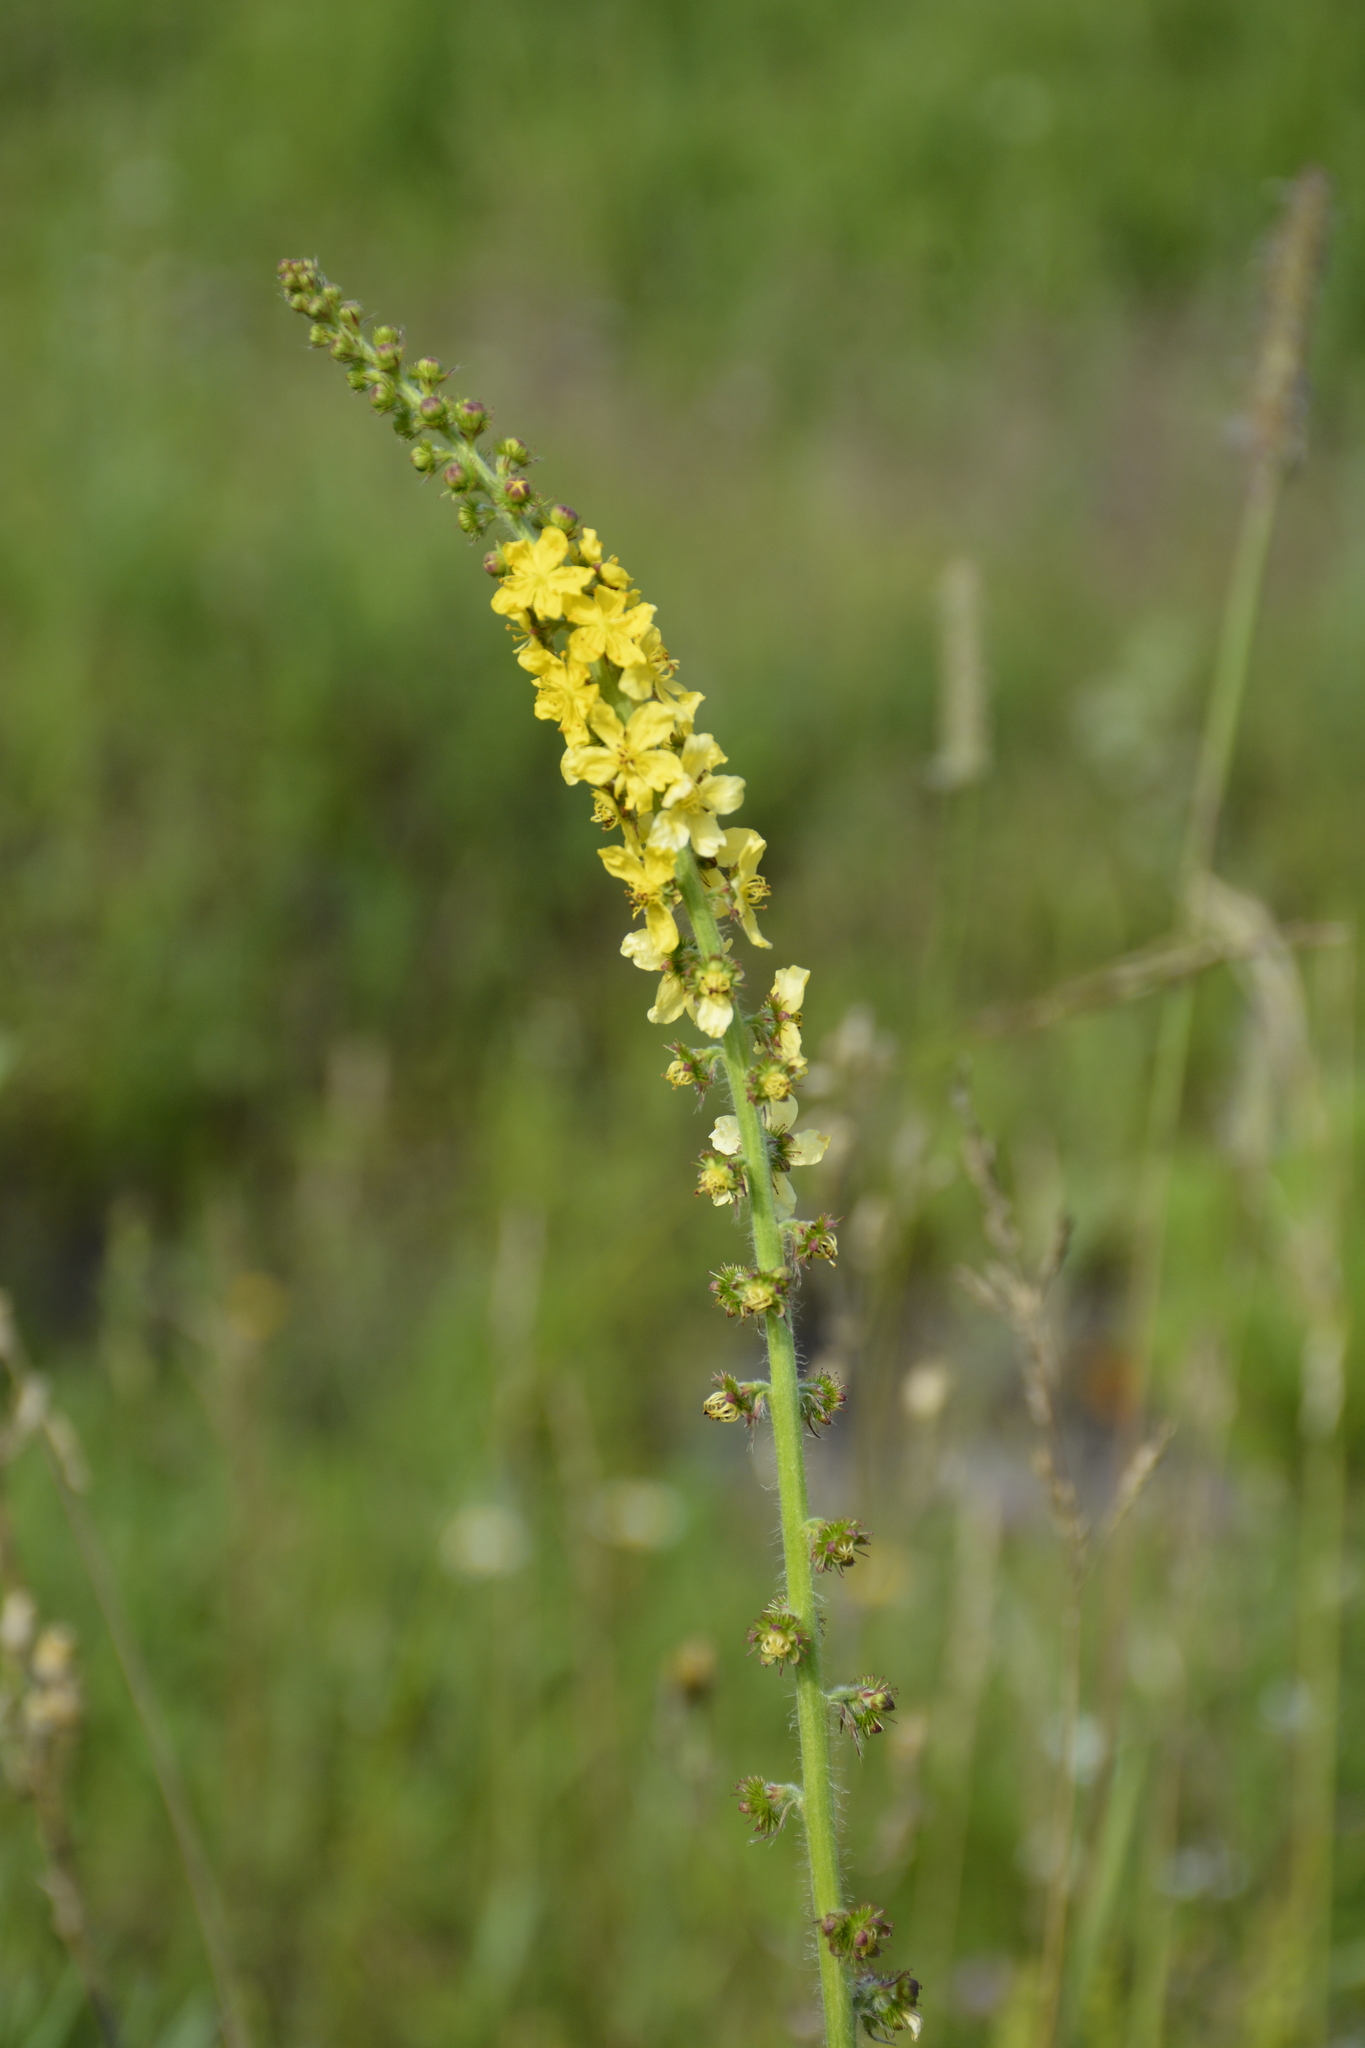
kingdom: Plantae
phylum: Tracheophyta
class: Magnoliopsida
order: Rosales
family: Rosaceae
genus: Agrimonia
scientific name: Agrimonia eupatoria
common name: Agrimony
